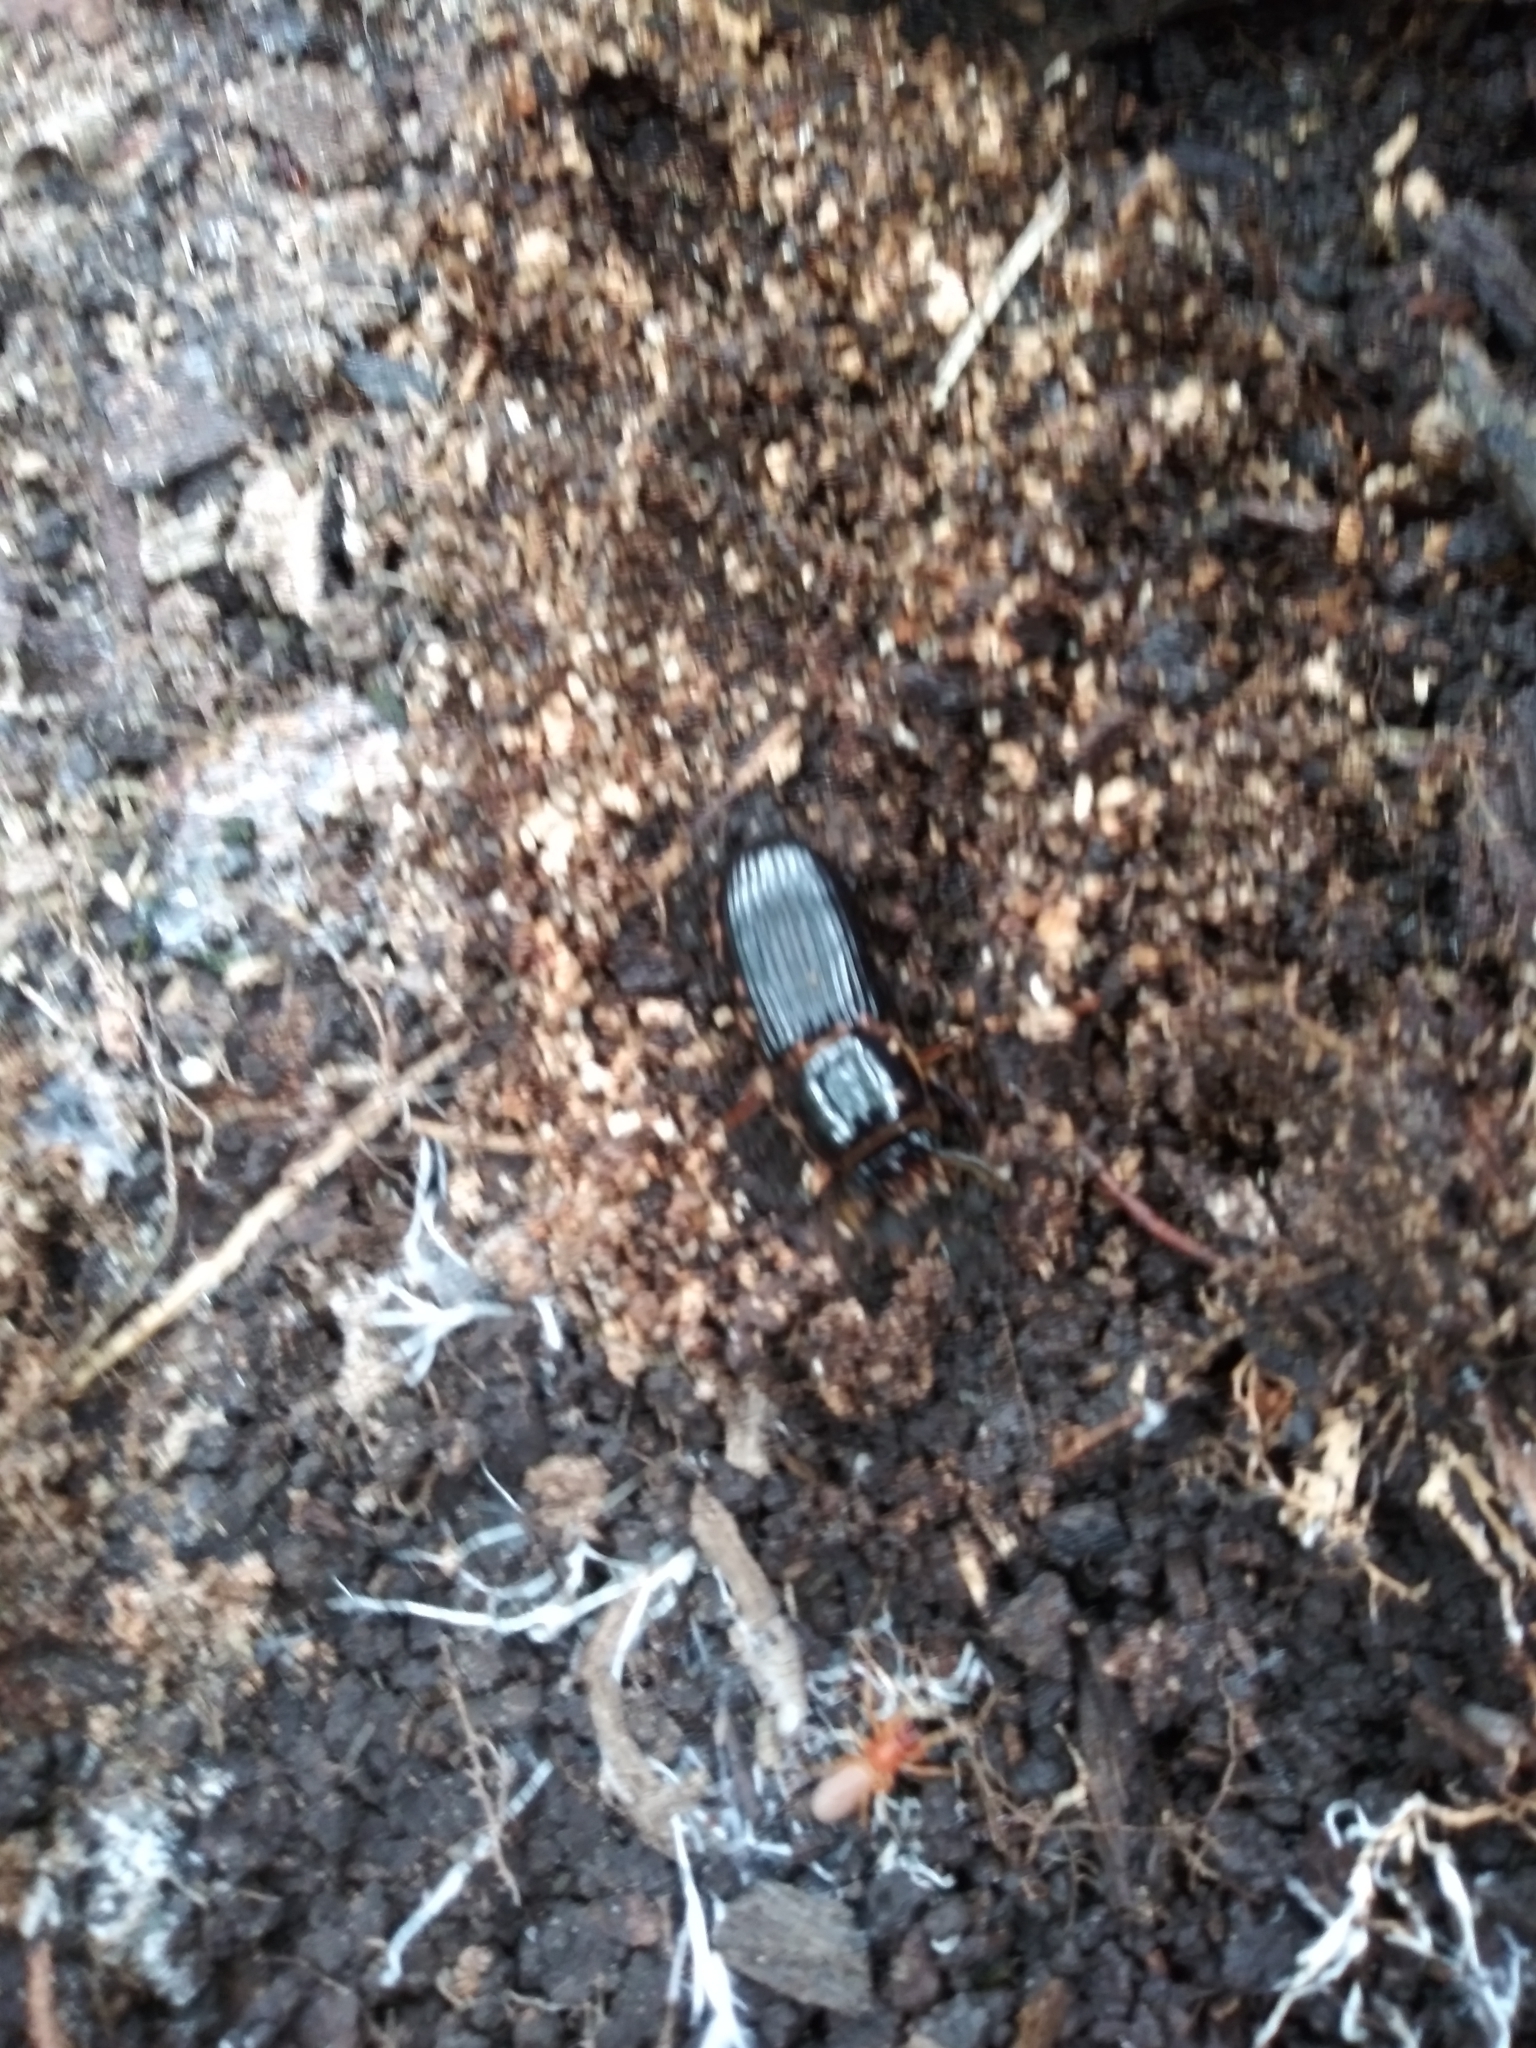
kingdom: Animalia
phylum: Arthropoda
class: Insecta
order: Coleoptera
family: Passalidae
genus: Odontotaenius
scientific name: Odontotaenius disjunctus
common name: Patent leather beetle
